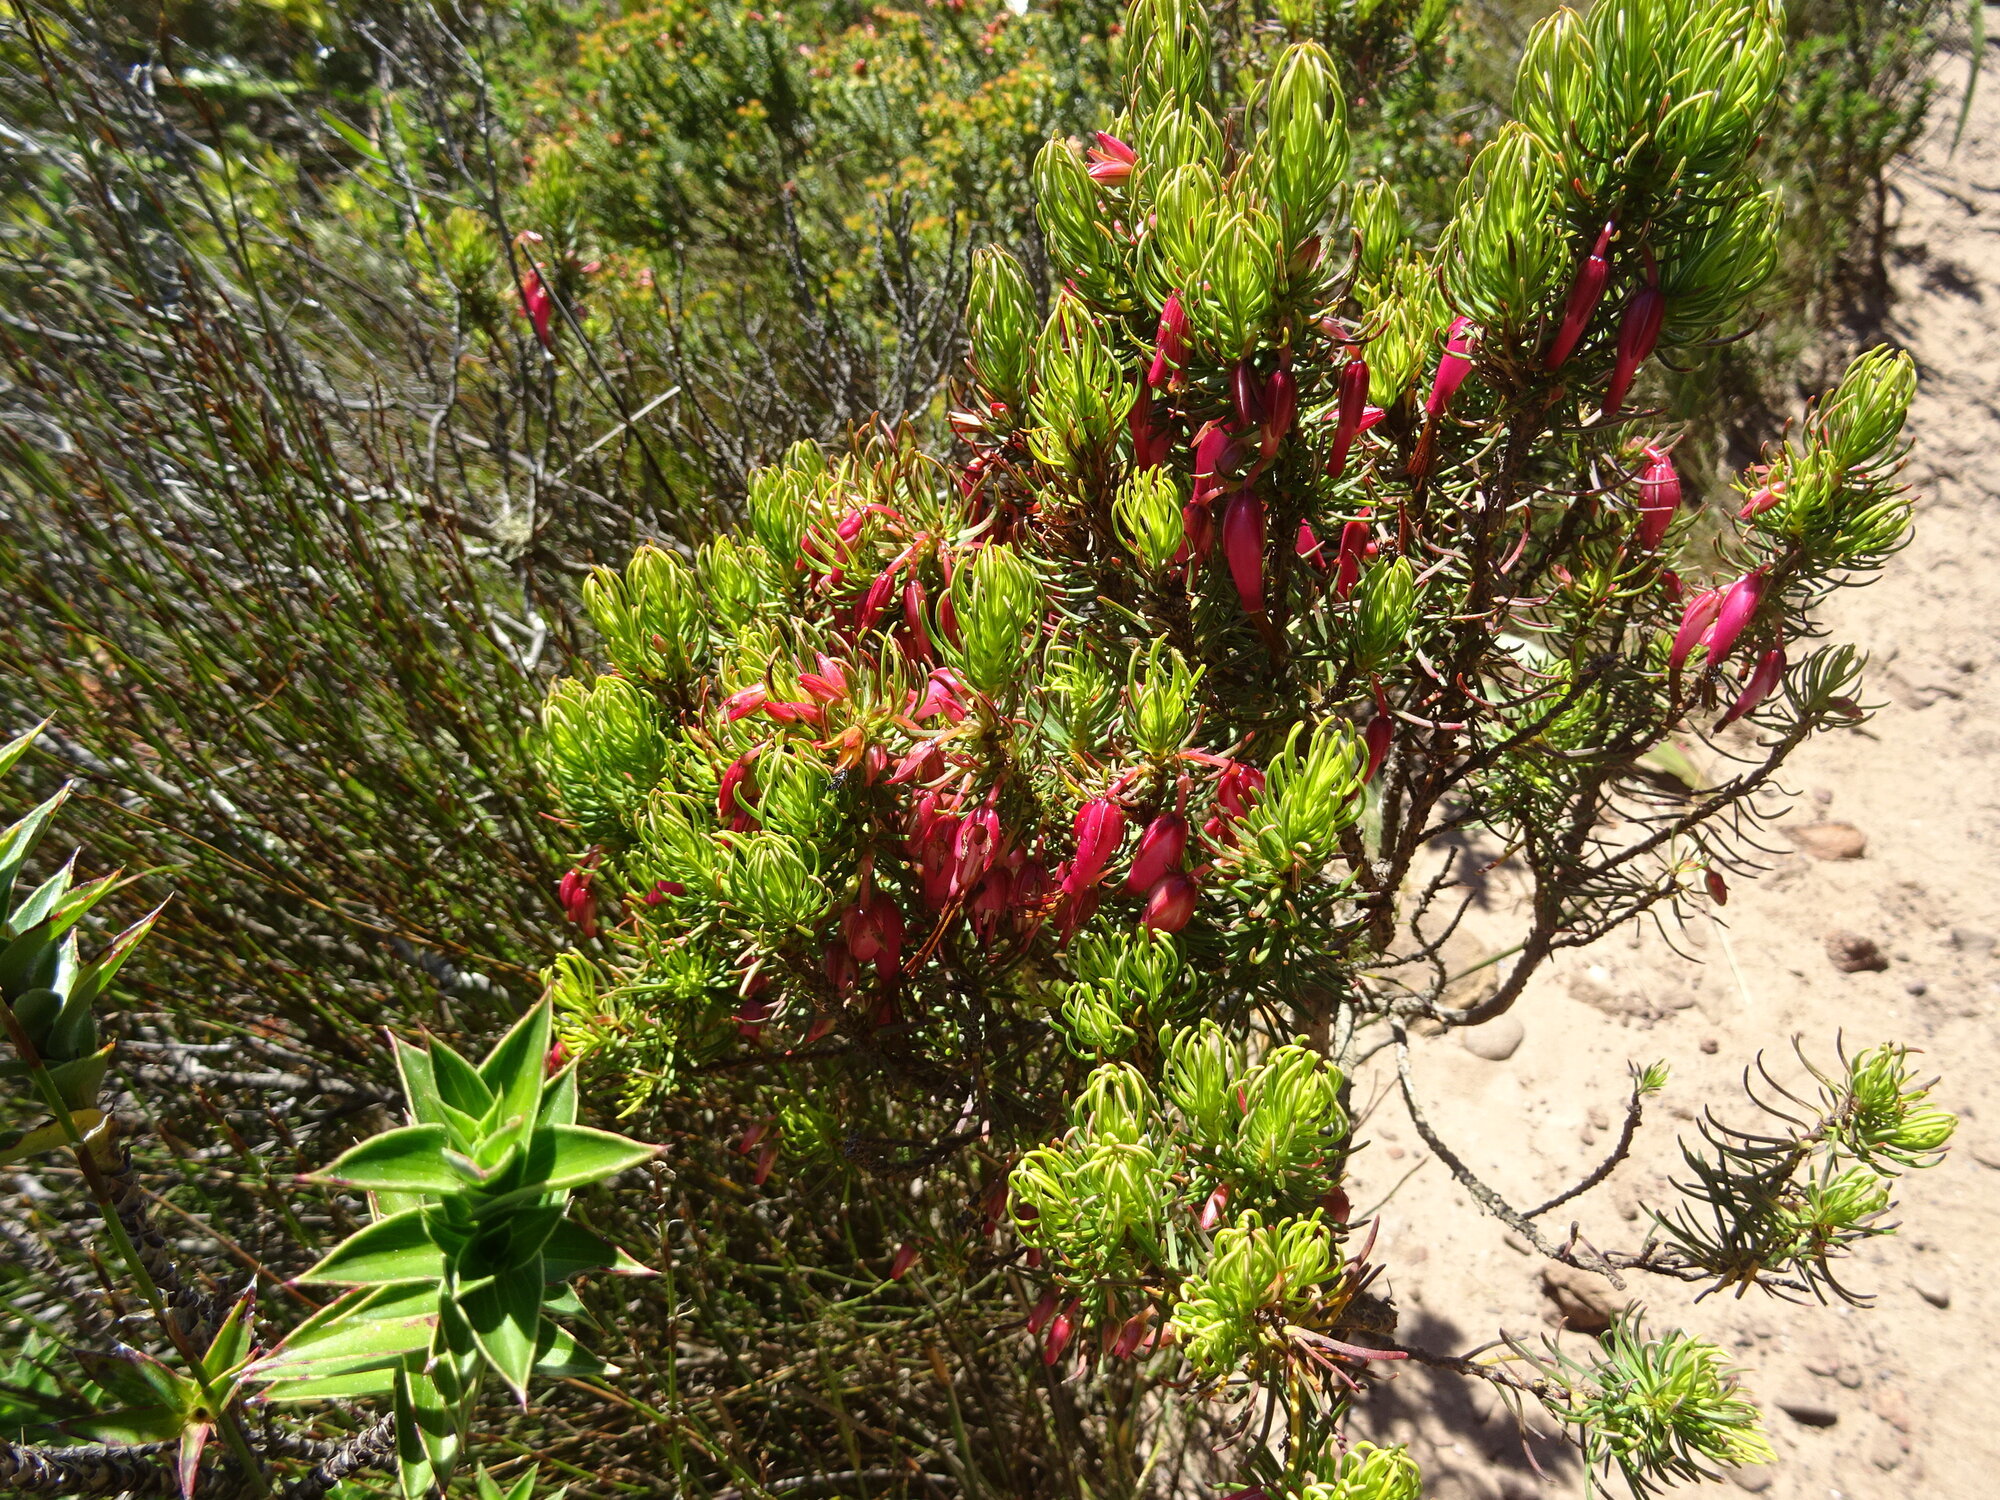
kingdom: Plantae
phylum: Tracheophyta
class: Magnoliopsida
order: Ericales
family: Ericaceae
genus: Erica
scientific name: Erica plukenetii
